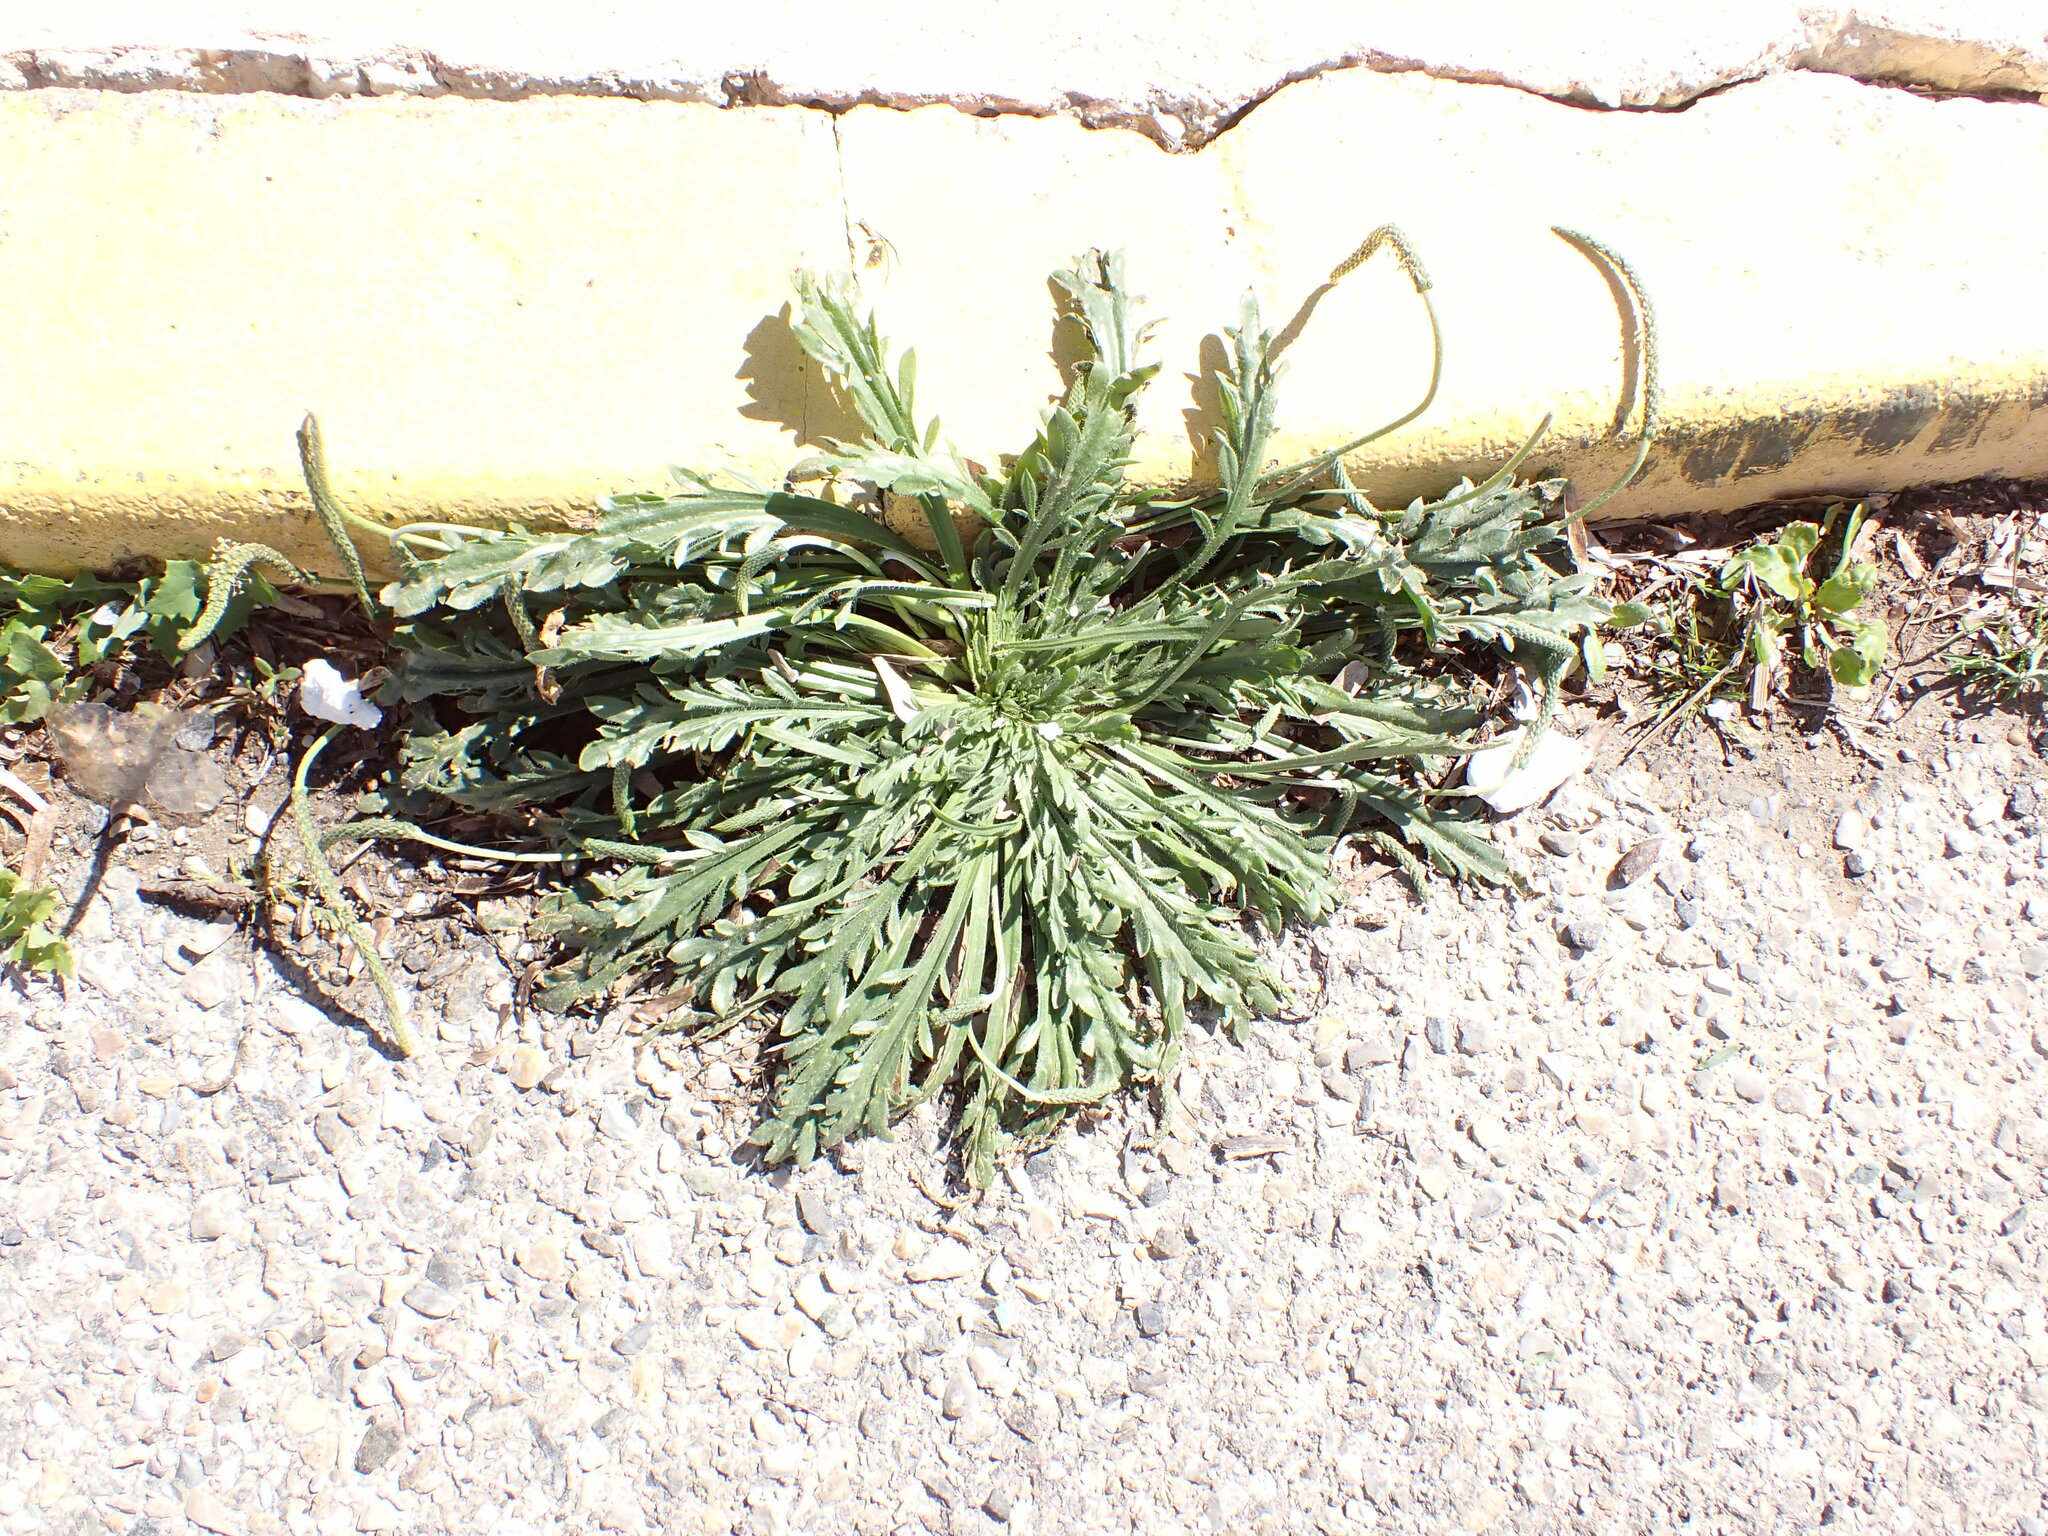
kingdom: Plantae
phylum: Tracheophyta
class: Magnoliopsida
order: Lamiales
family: Plantaginaceae
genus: Plantago
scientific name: Plantago coronopus
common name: Buck's-horn plantain
